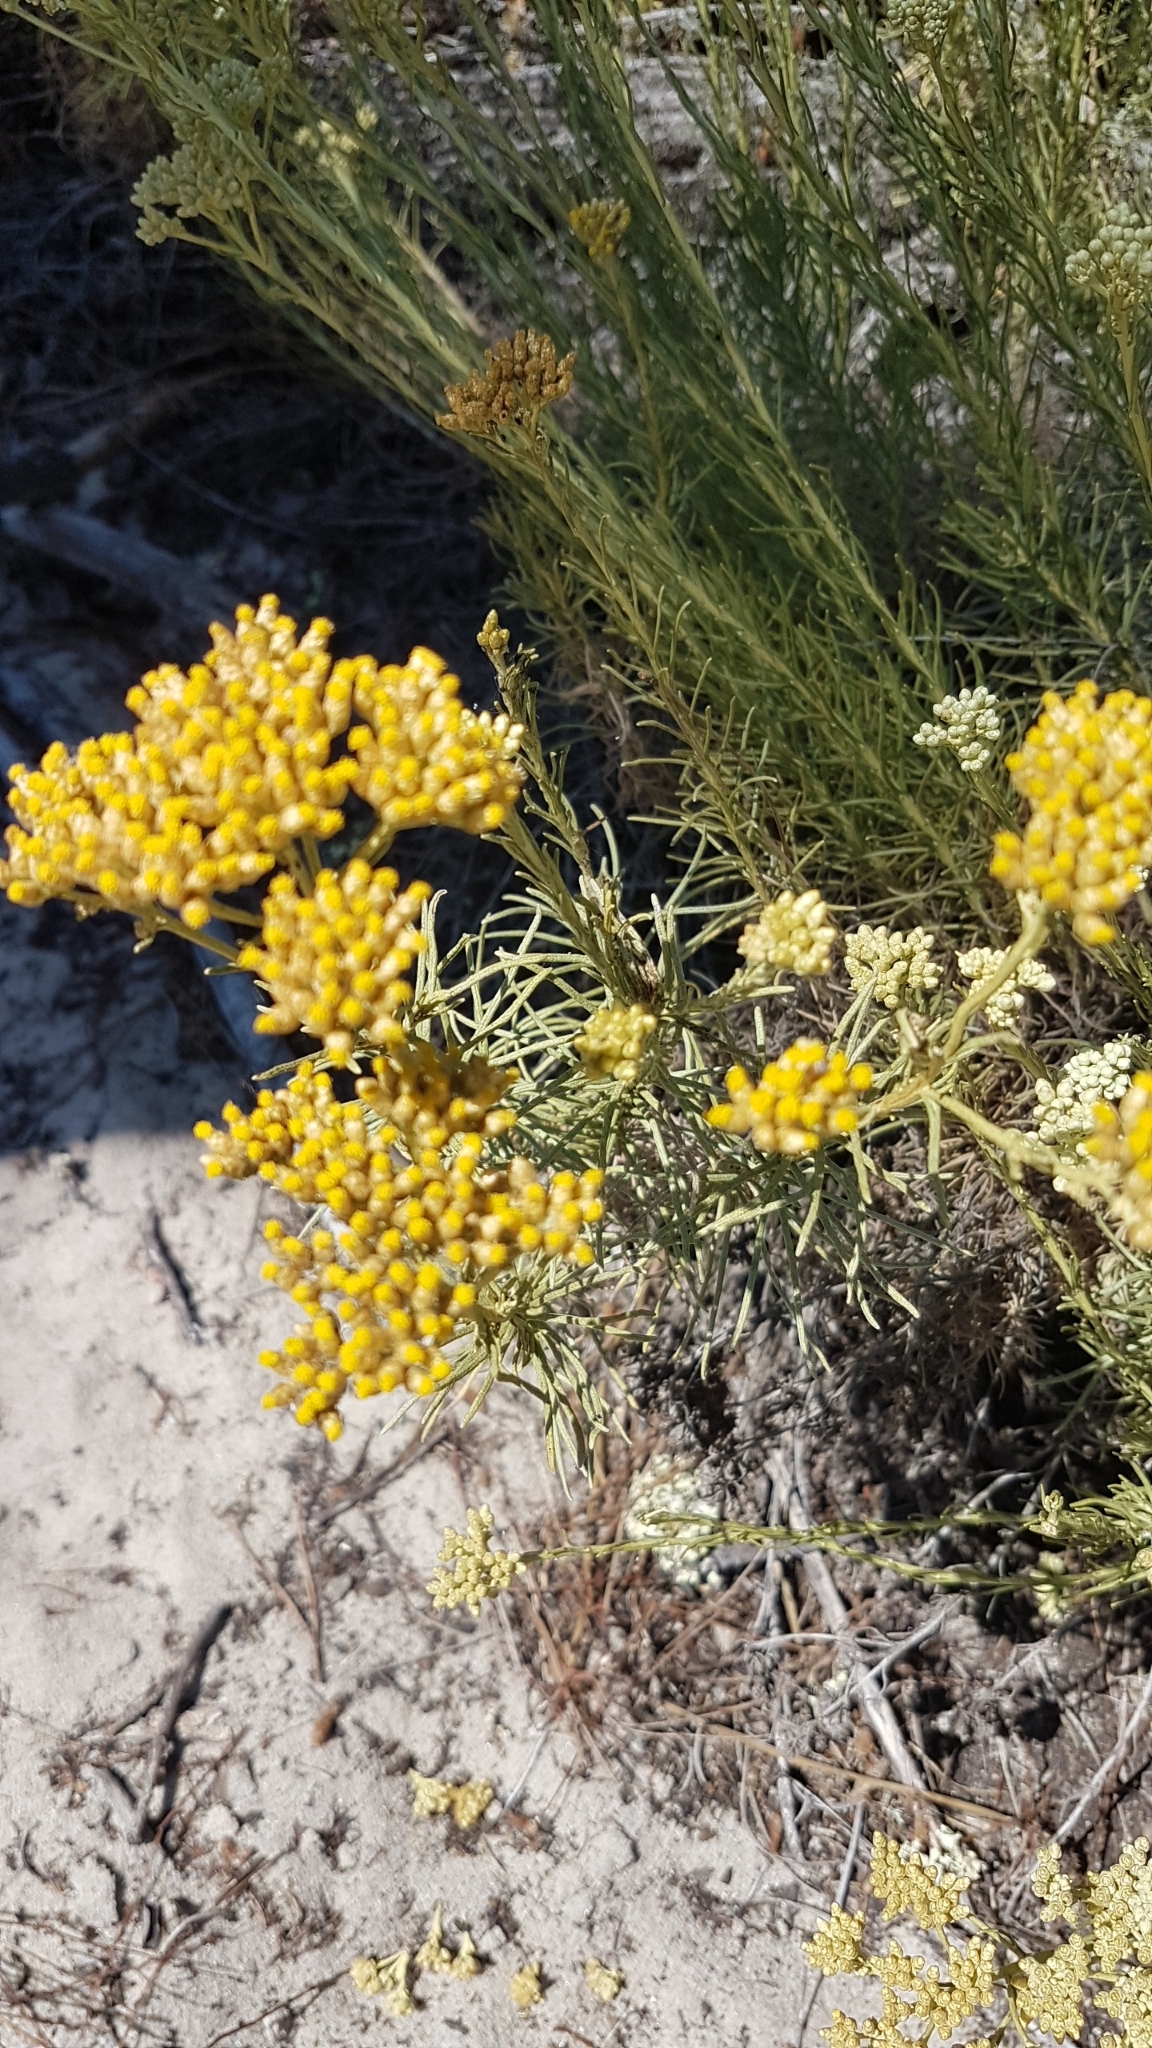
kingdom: Plantae
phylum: Tracheophyta
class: Magnoliopsida
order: Asterales
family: Asteraceae
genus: Helichrysum
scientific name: Helichrysum serotinum
